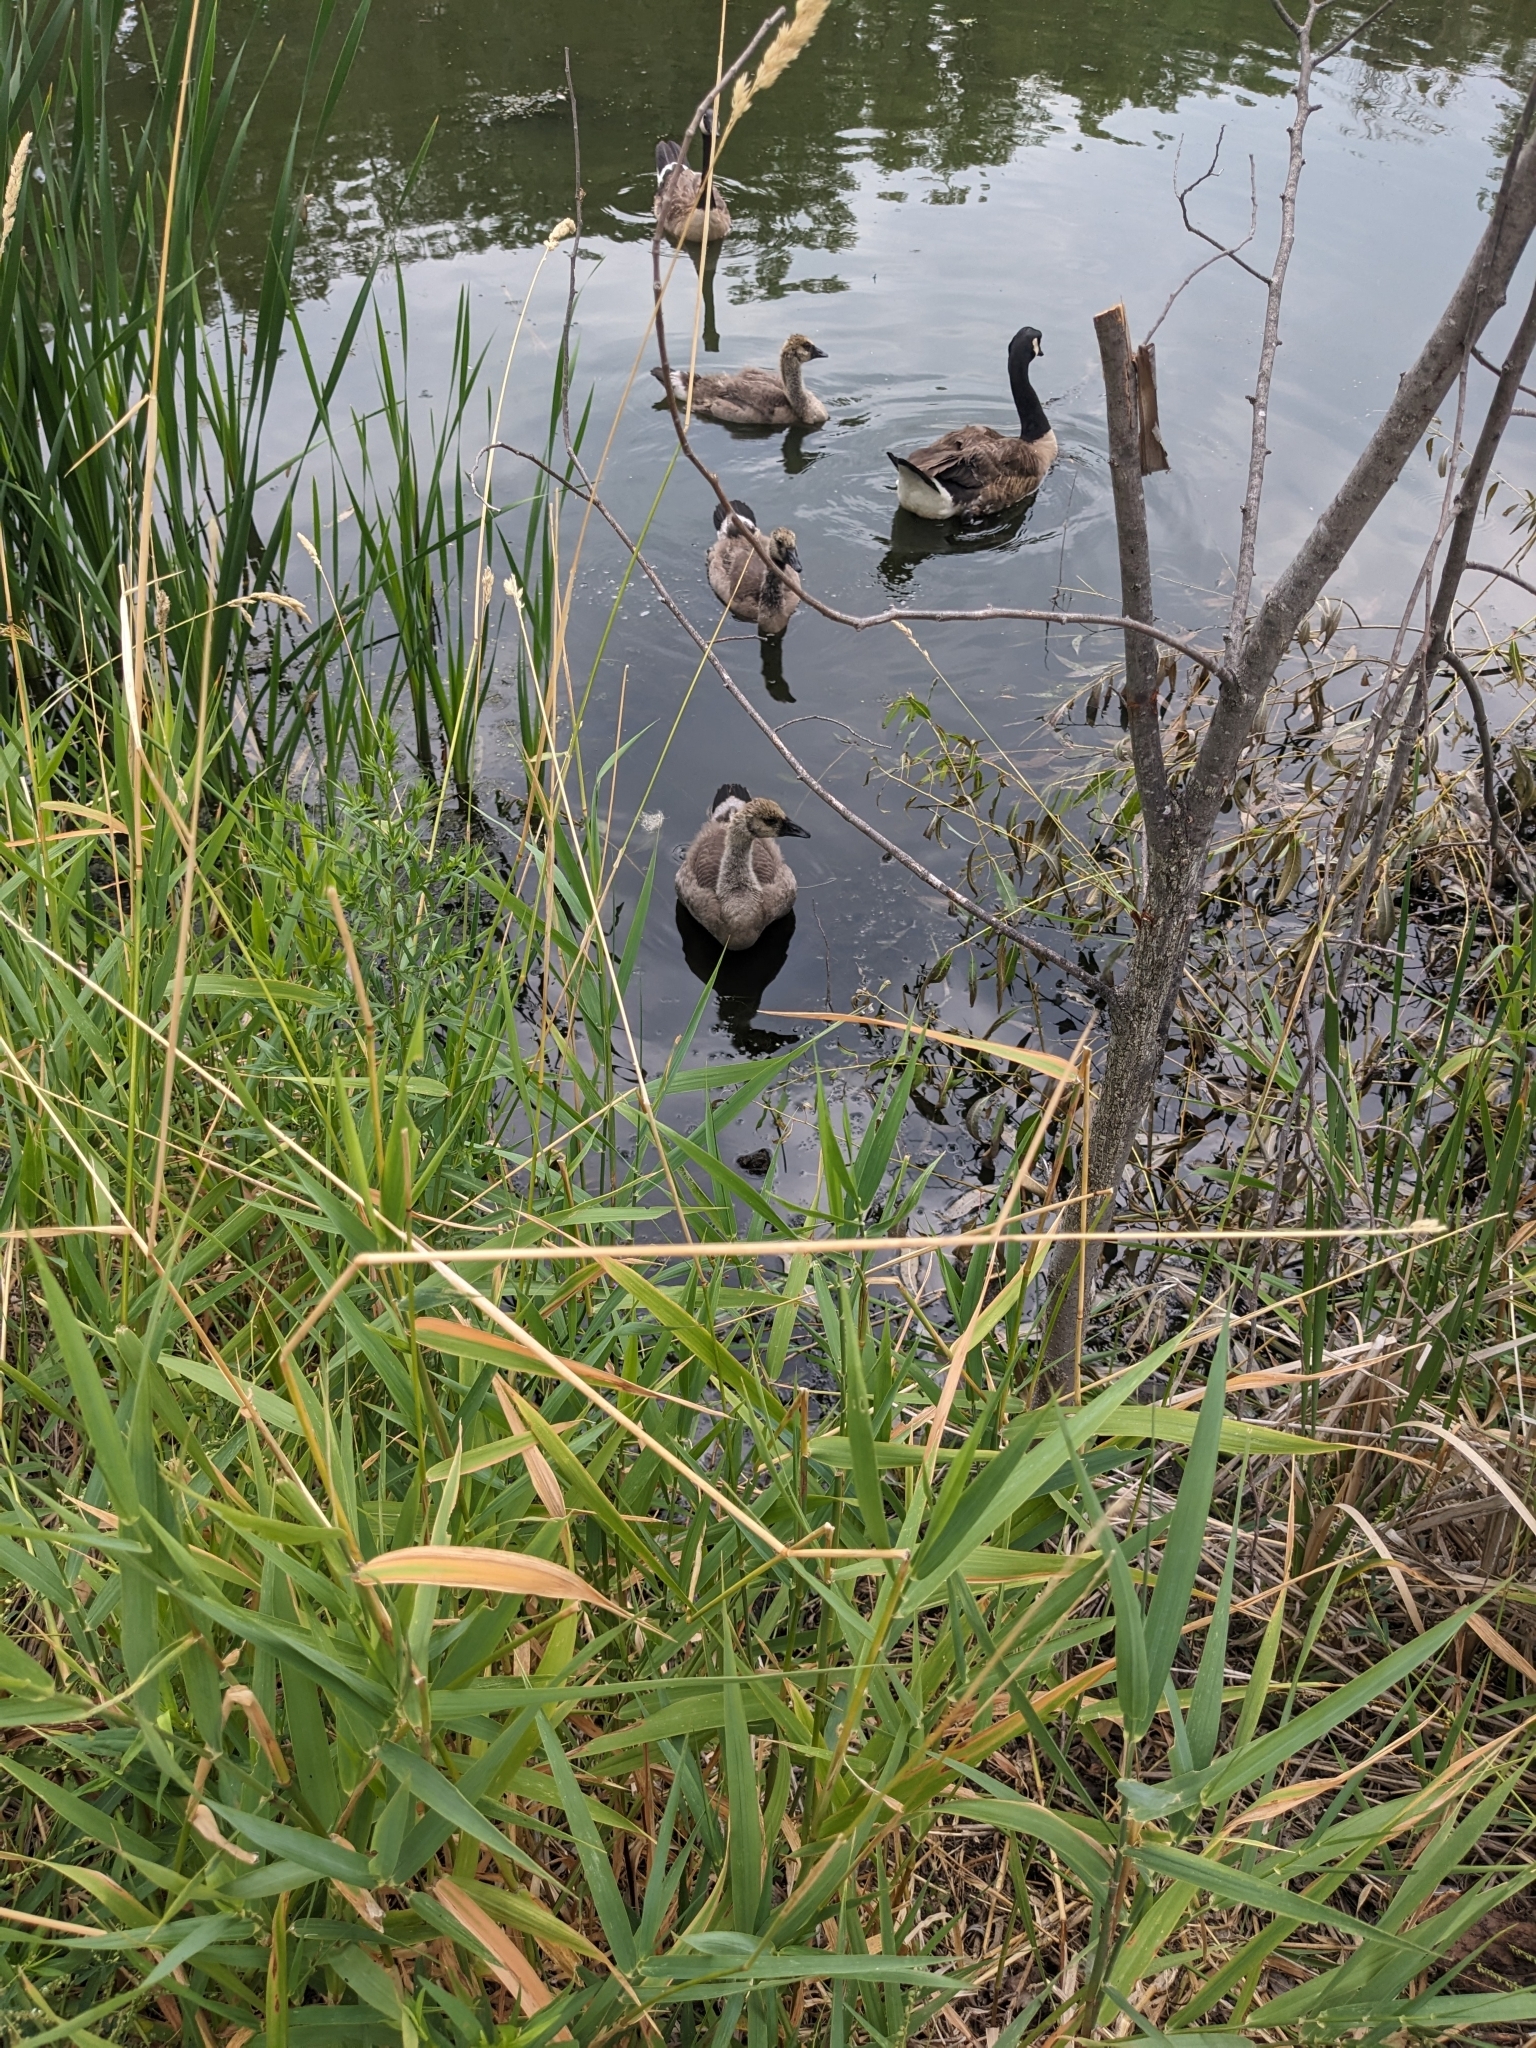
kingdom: Animalia
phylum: Chordata
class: Aves
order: Anseriformes
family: Anatidae
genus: Branta
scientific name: Branta canadensis
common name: Canada goose
